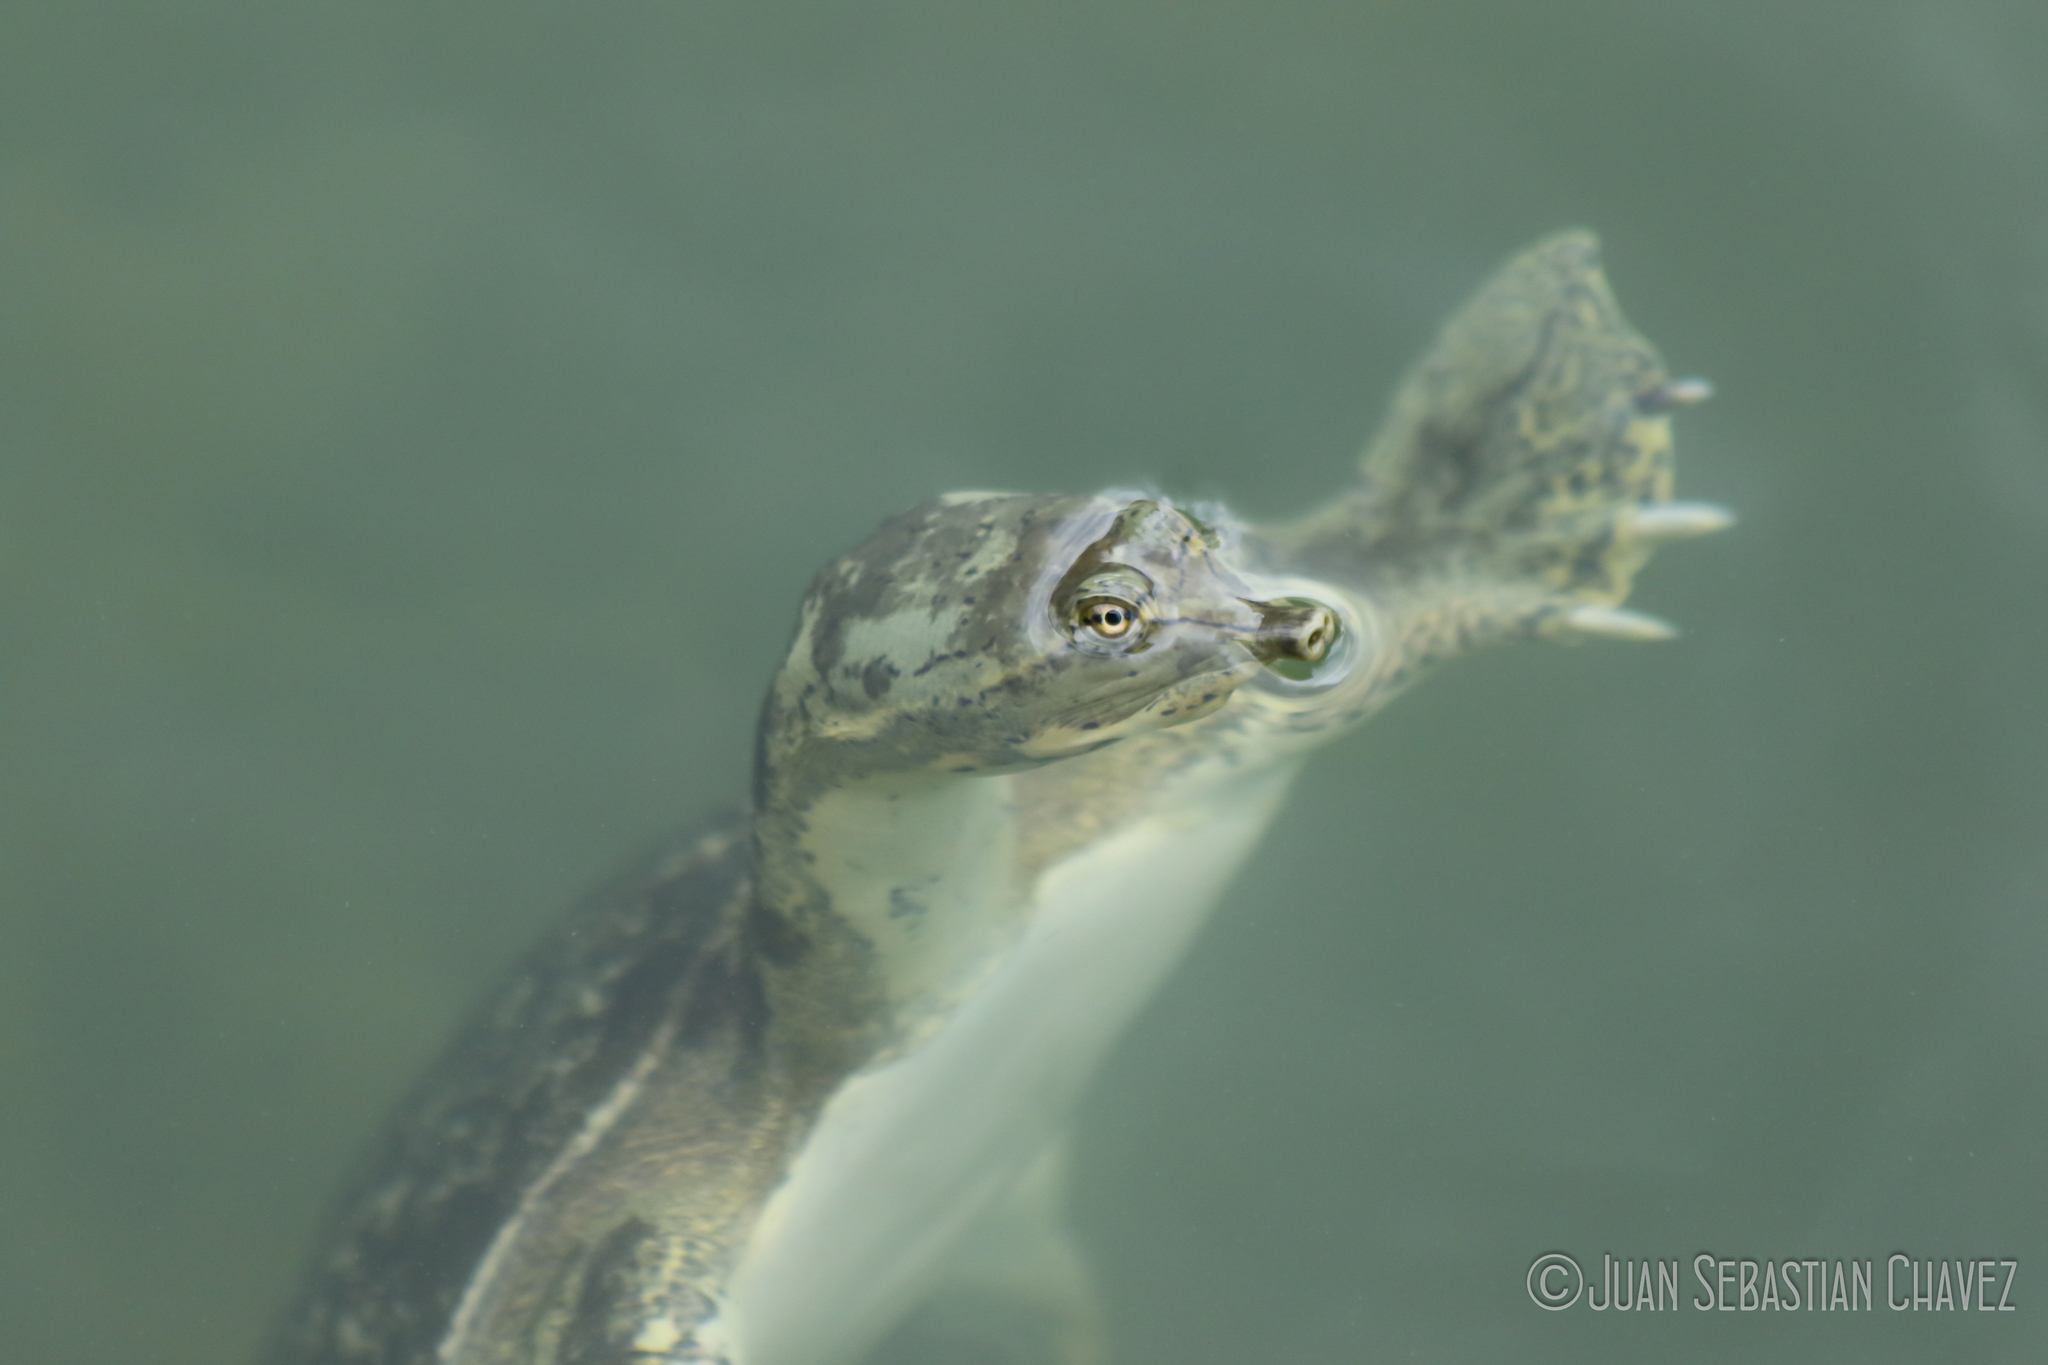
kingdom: Animalia
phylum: Chordata
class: Testudines
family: Trionychidae
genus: Apalone
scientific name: Apalone spinifera
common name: Spiny softshell turtle
